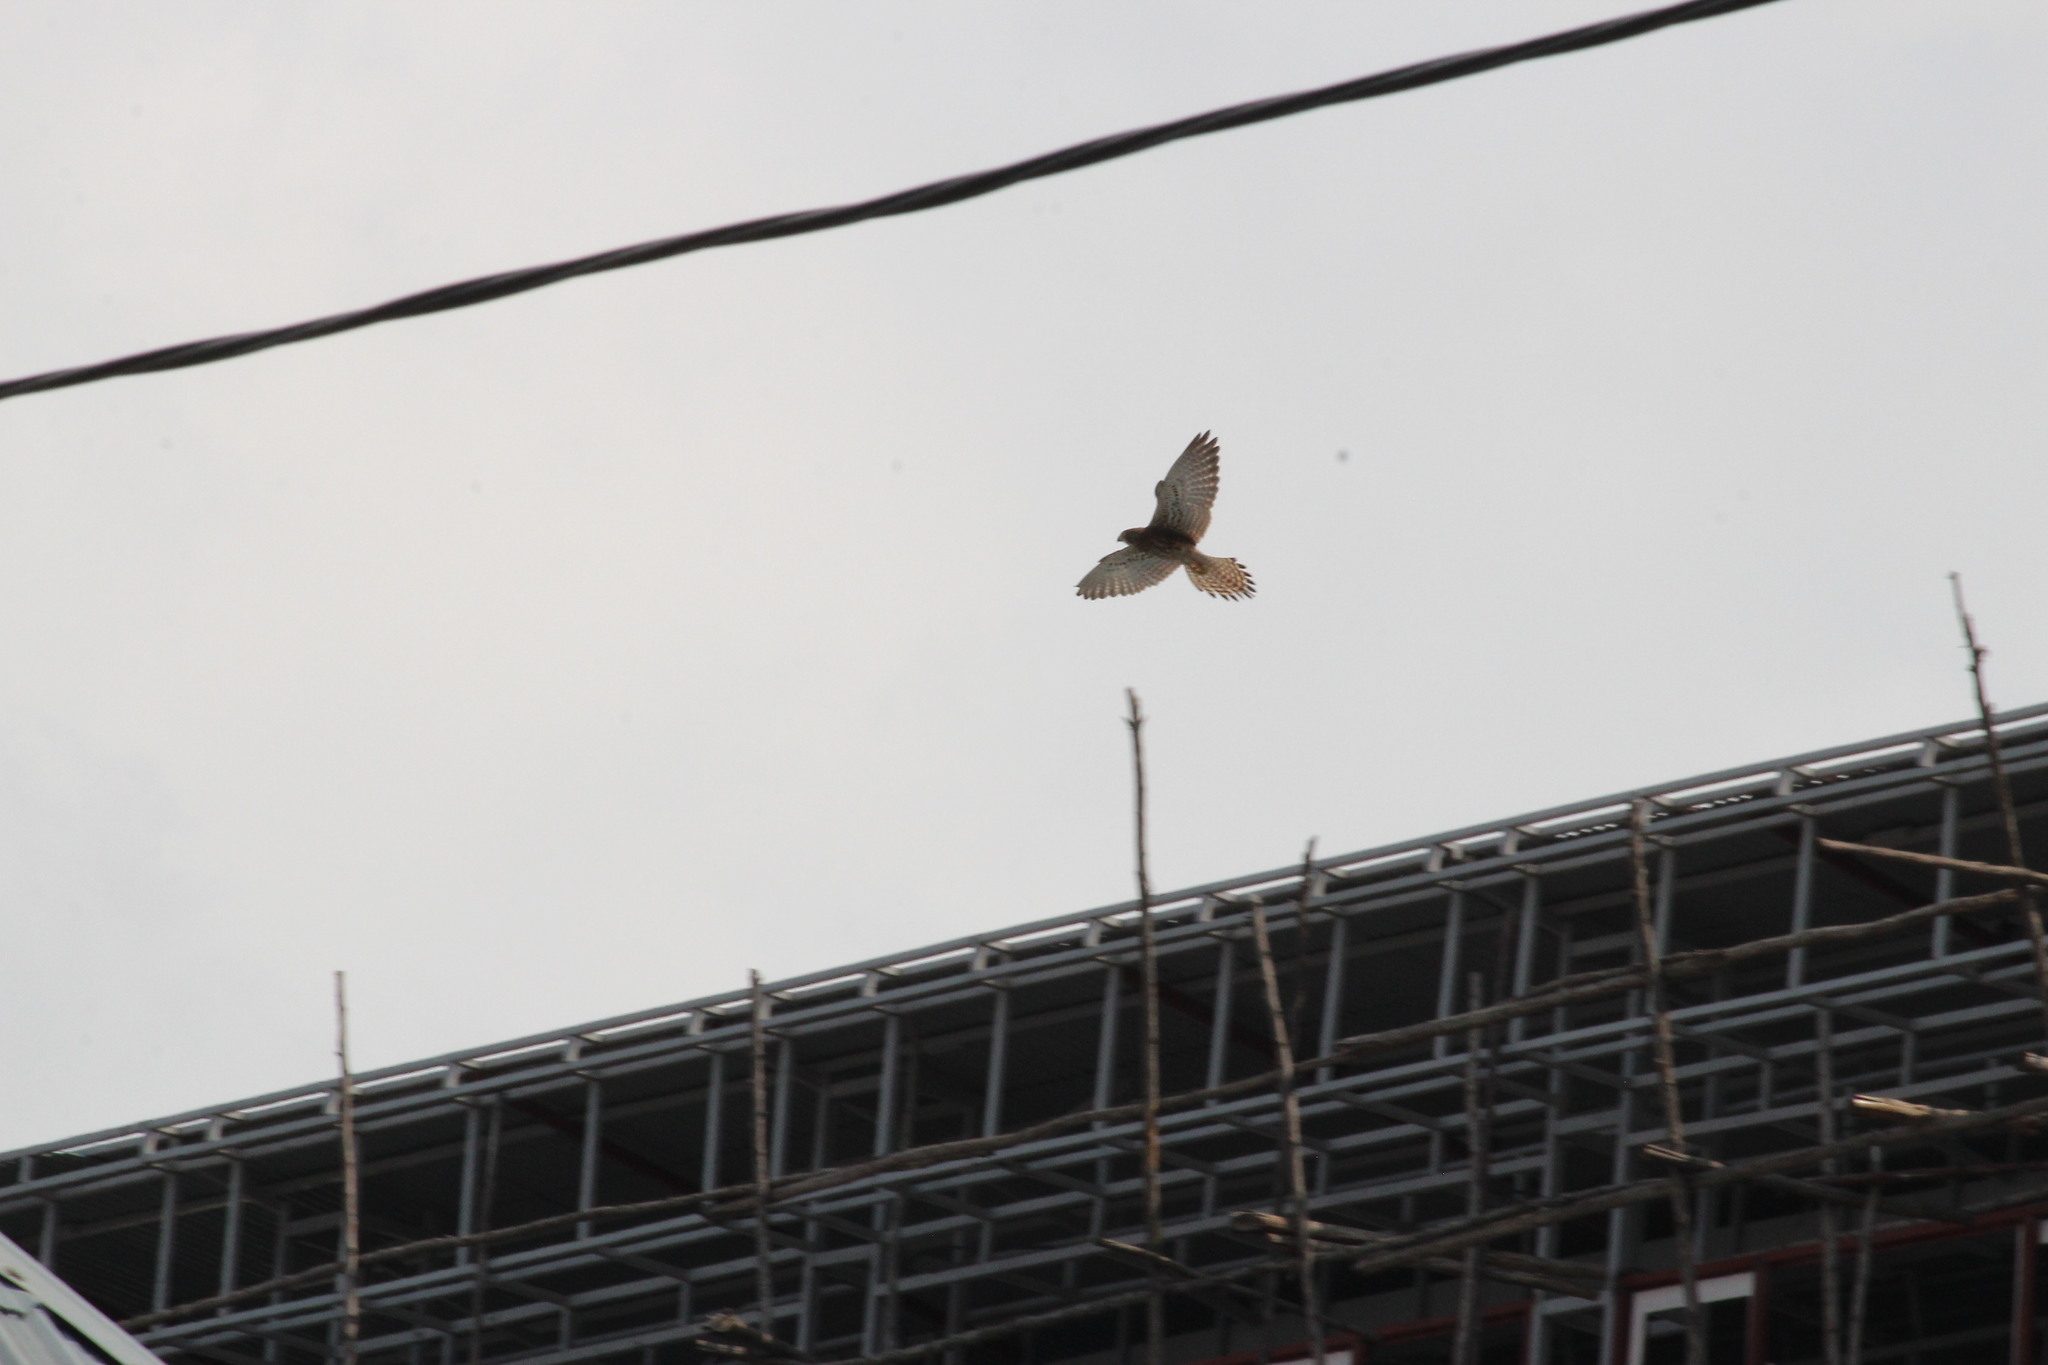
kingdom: Animalia
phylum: Chordata
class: Aves
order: Falconiformes
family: Falconidae
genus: Falco
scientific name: Falco tinnunculus
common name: Common kestrel
